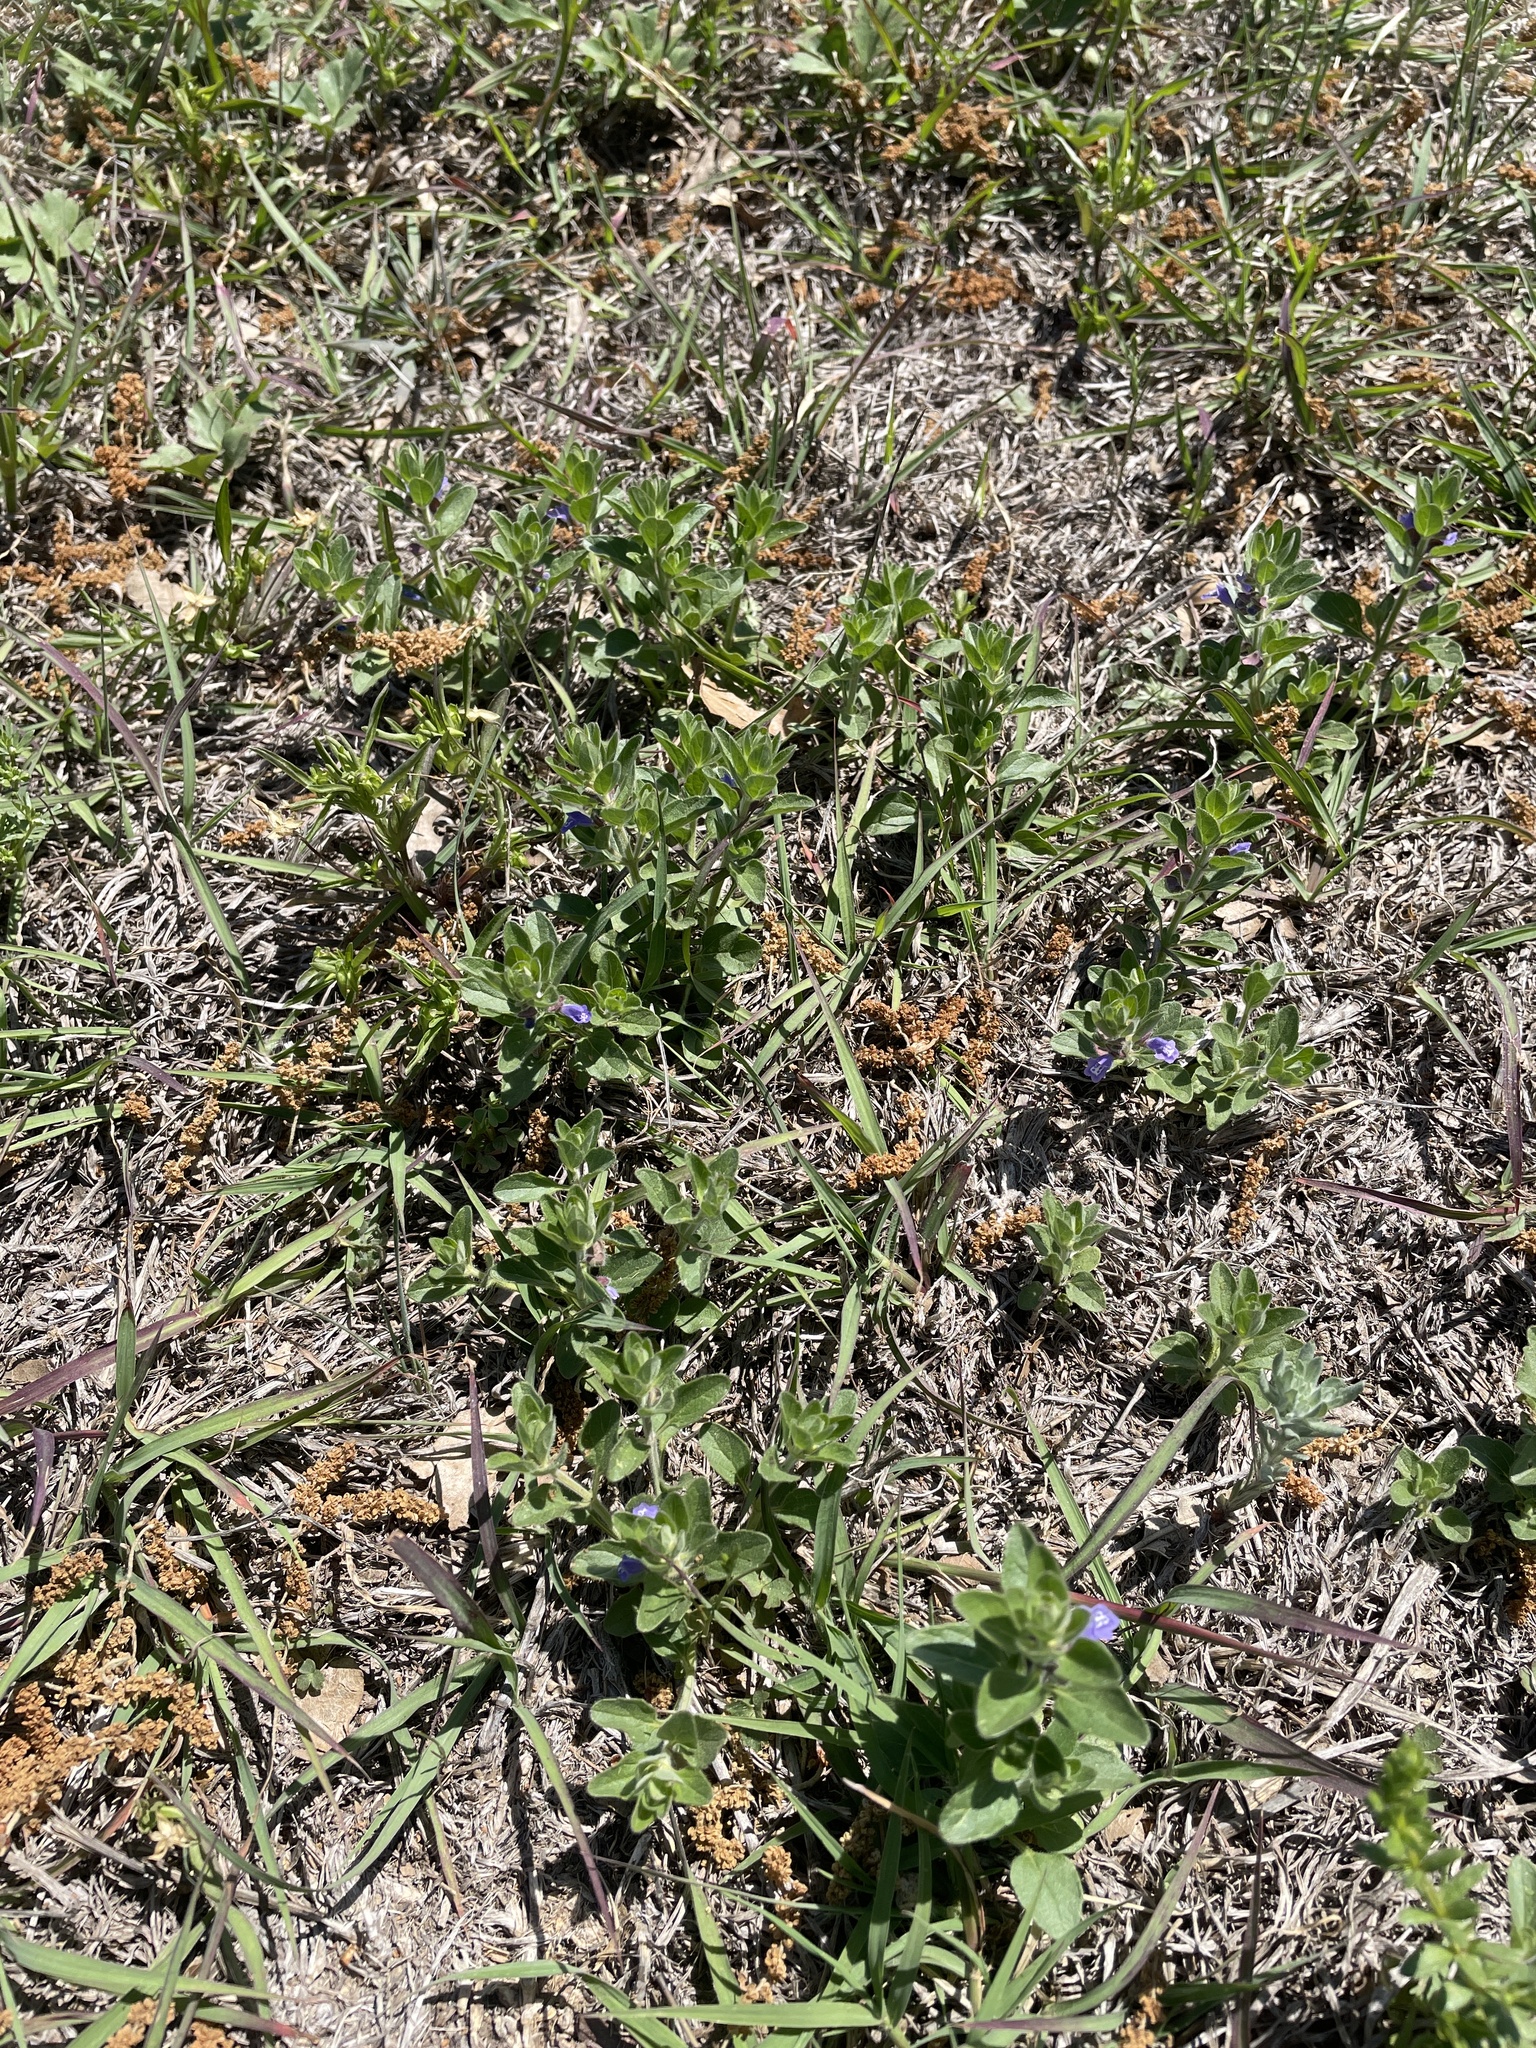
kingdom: Plantae
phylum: Tracheophyta
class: Magnoliopsida
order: Lamiales
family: Lamiaceae
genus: Scutellaria
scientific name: Scutellaria drummondii
